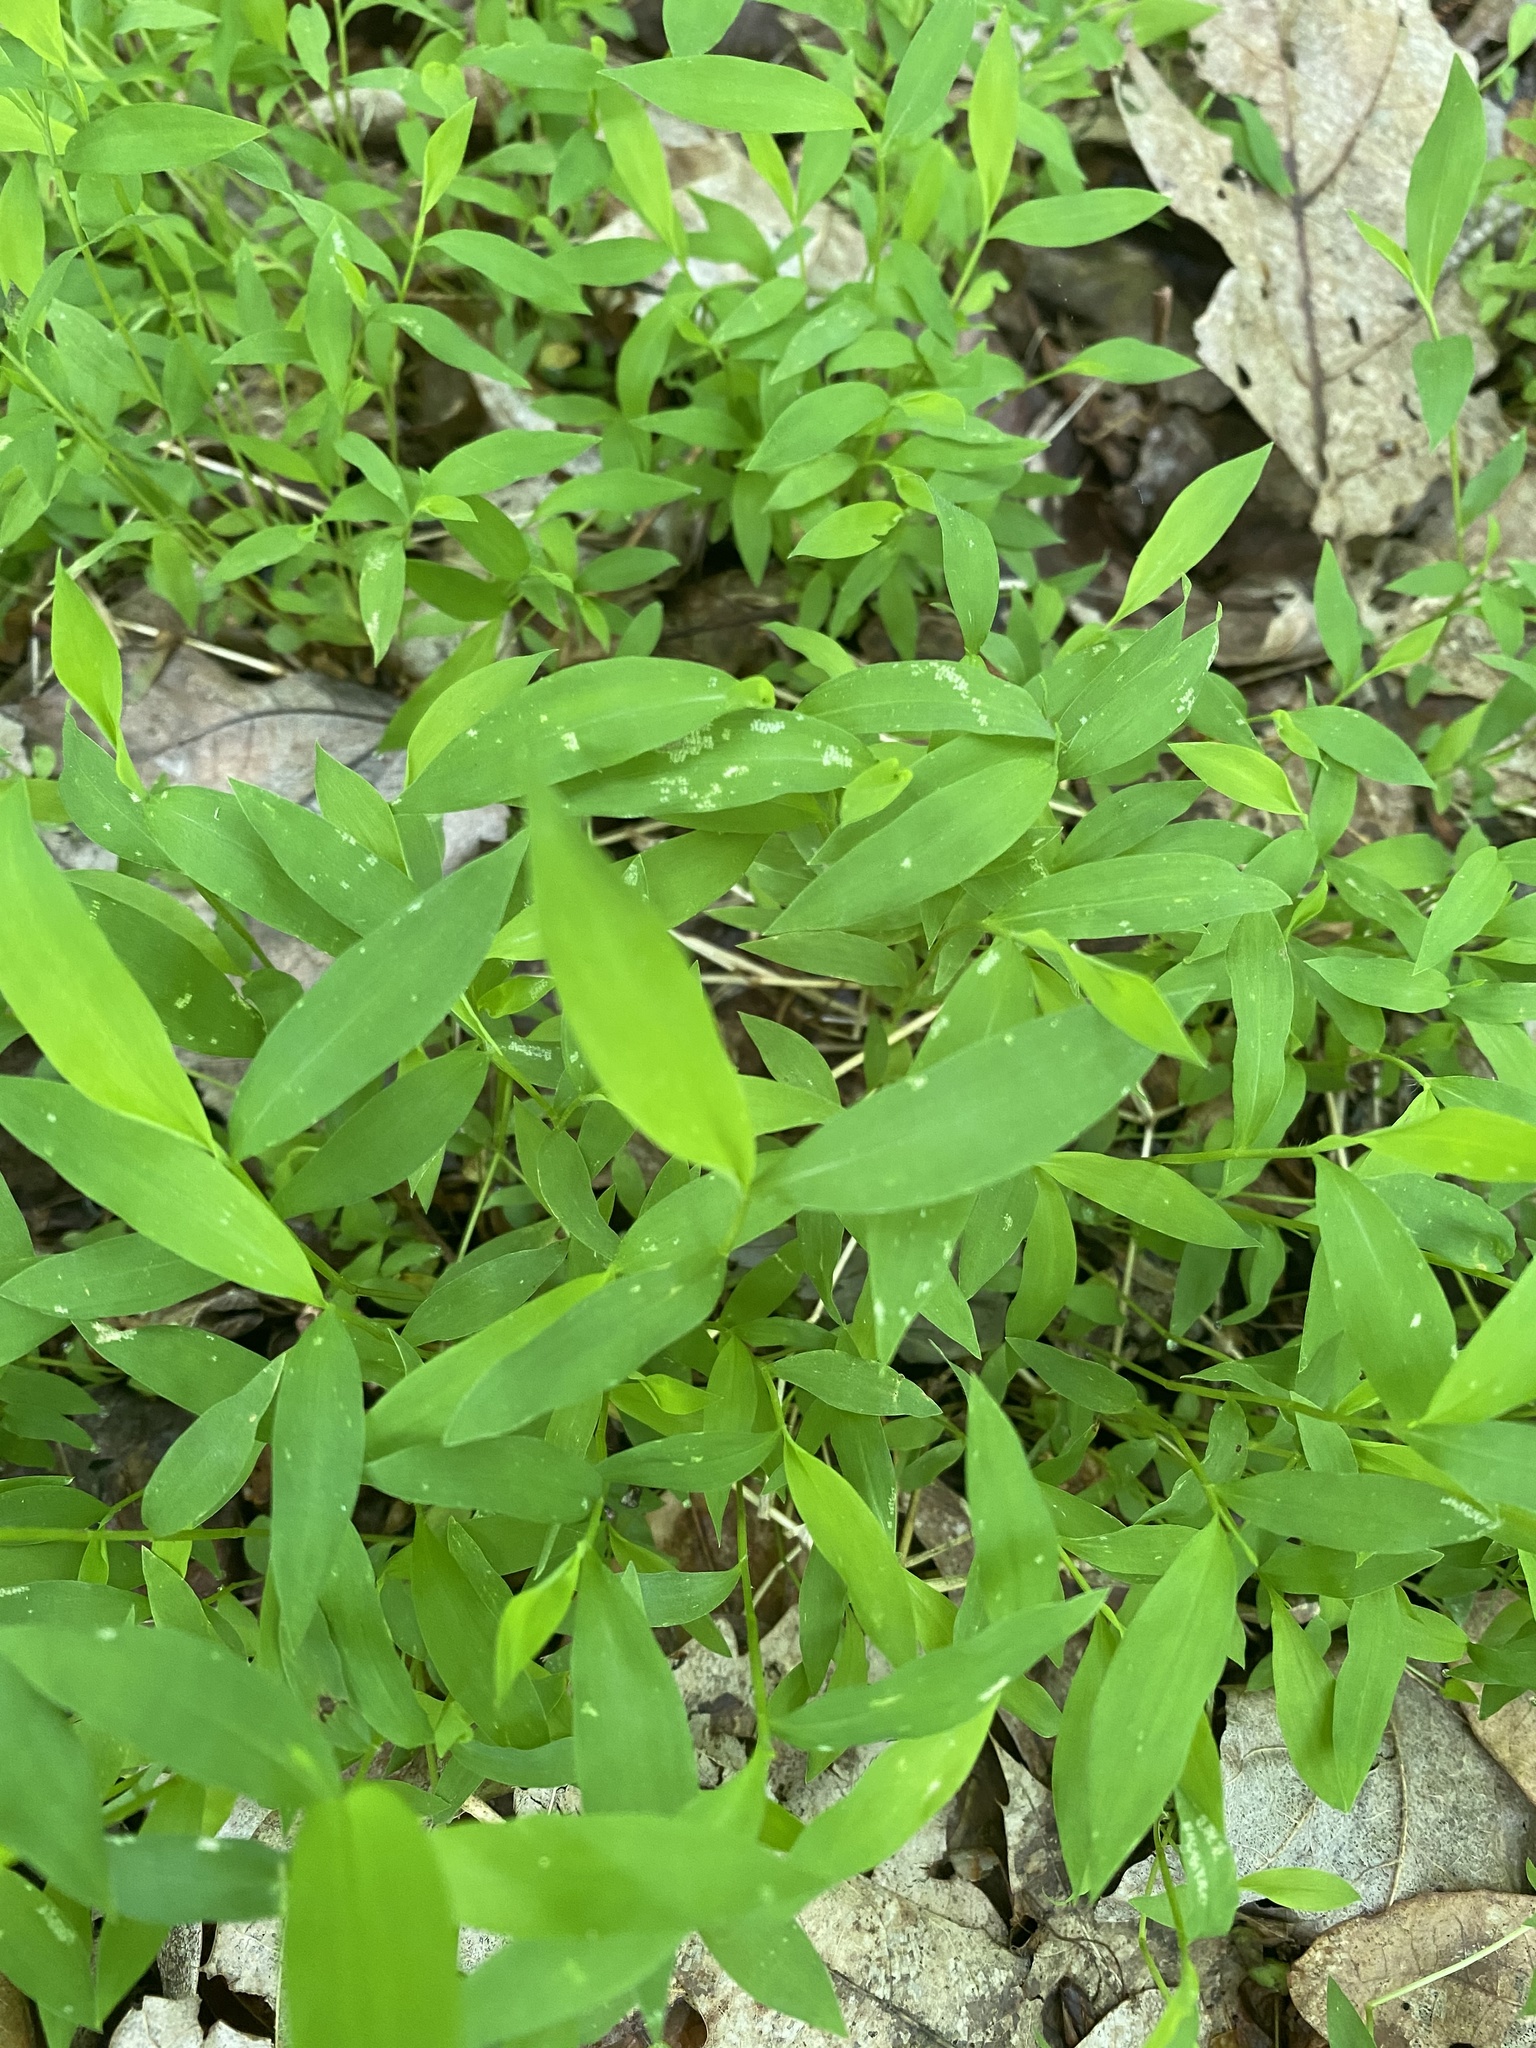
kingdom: Plantae
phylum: Tracheophyta
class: Liliopsida
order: Poales
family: Poaceae
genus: Microstegium
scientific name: Microstegium vimineum
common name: Japanese stiltgrass
